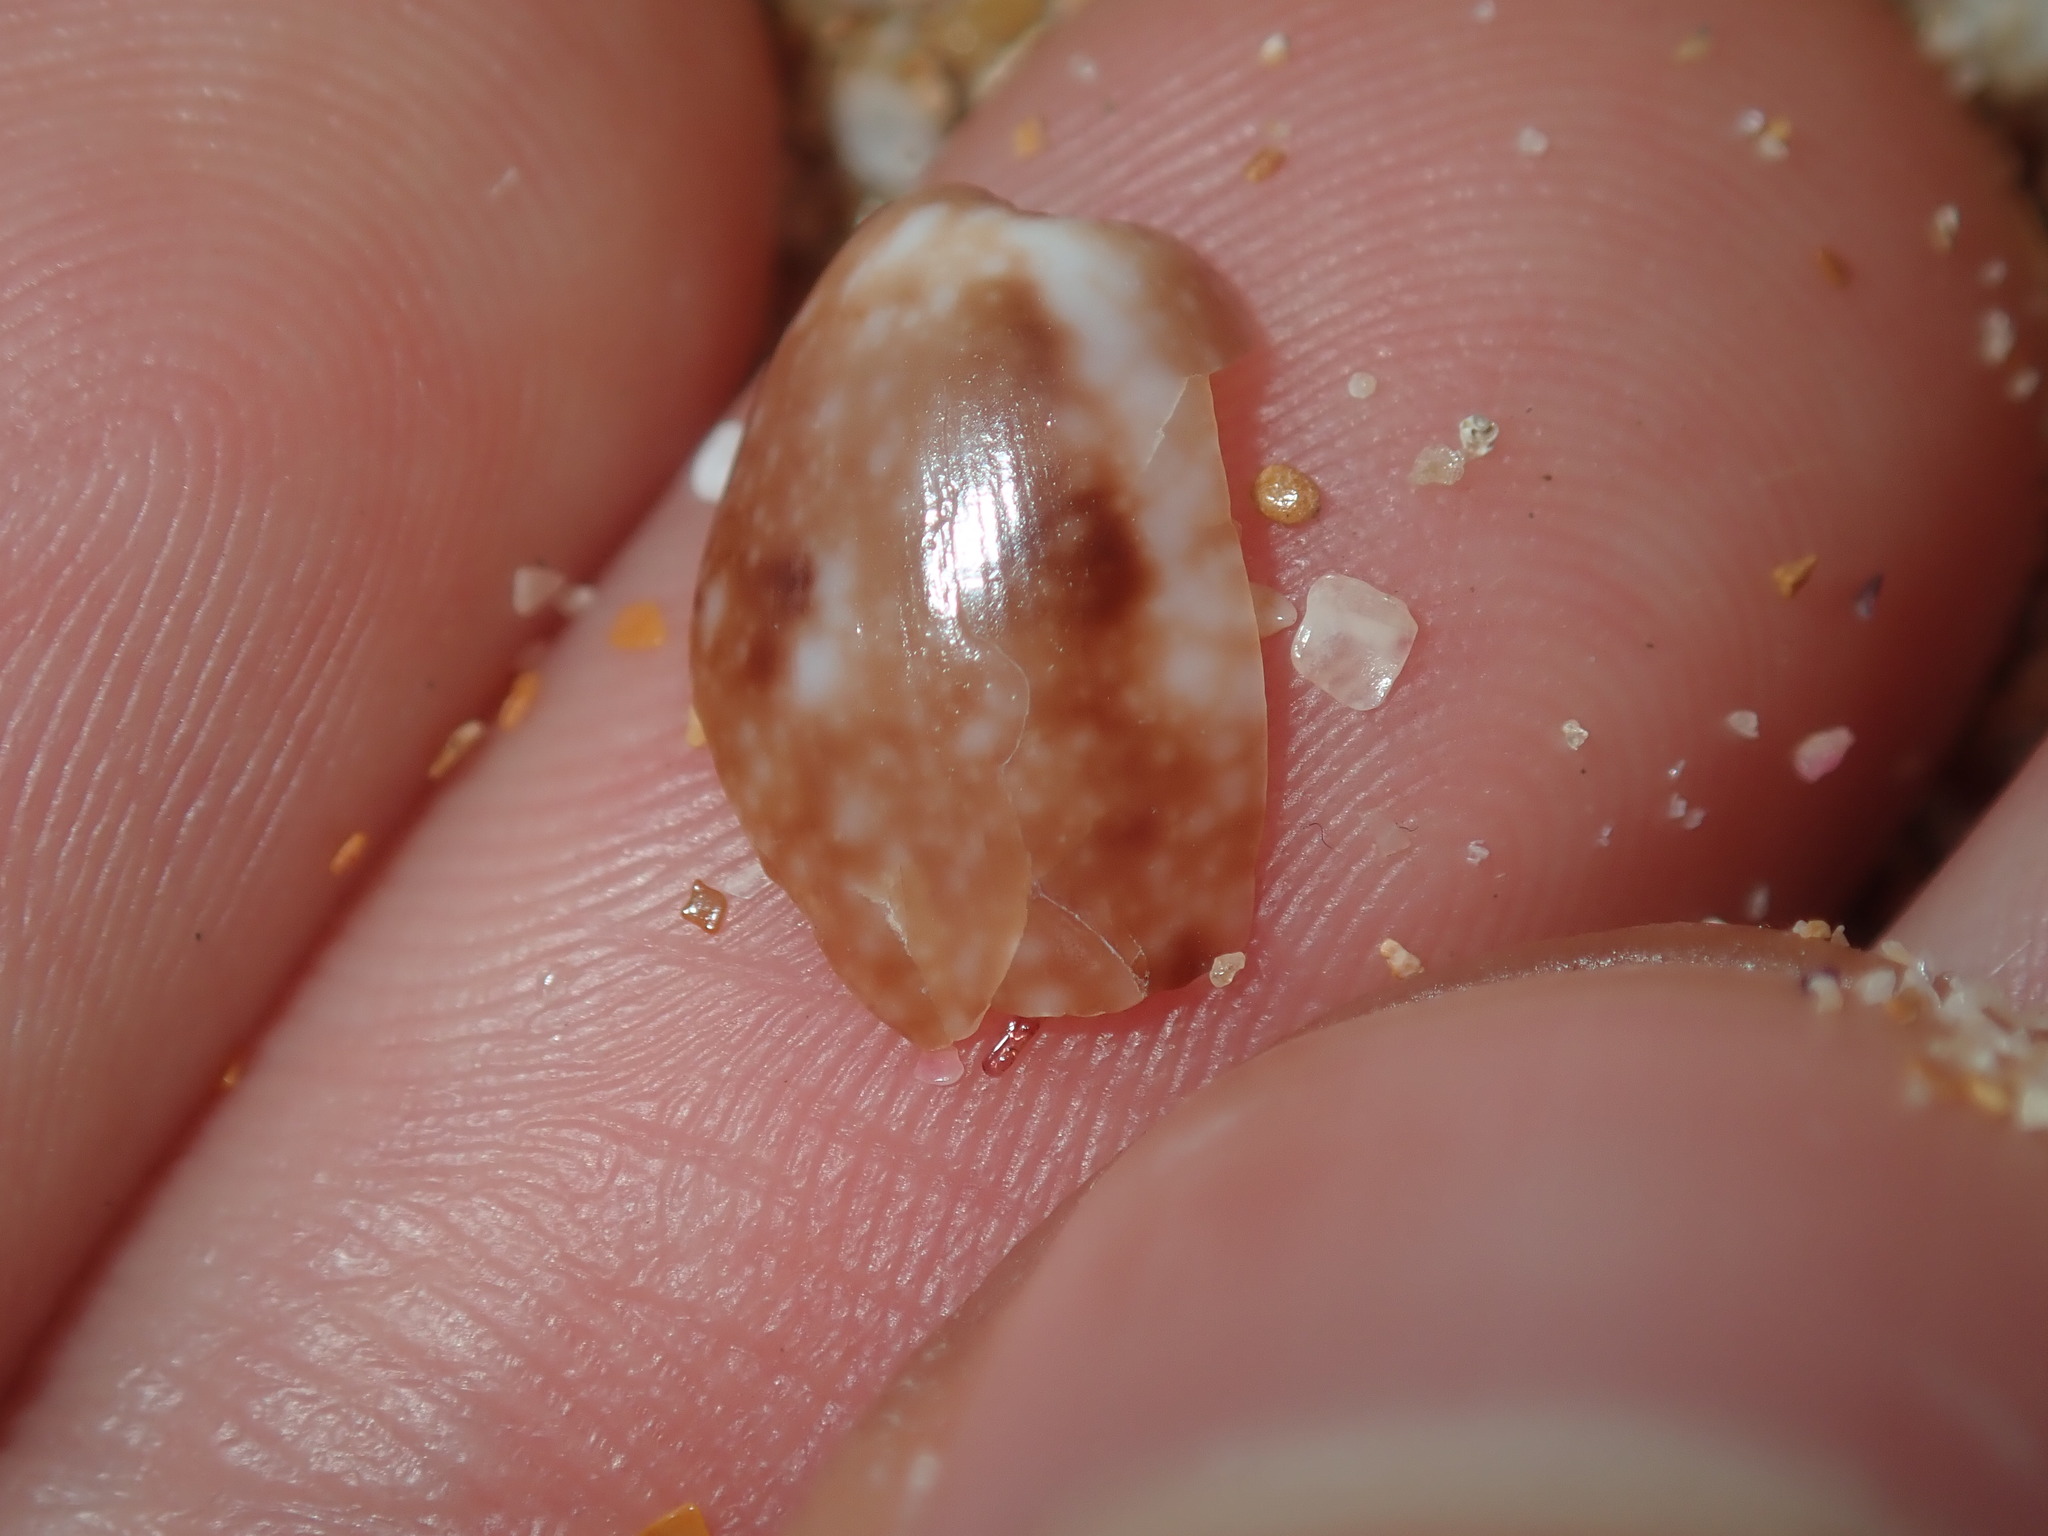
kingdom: Animalia
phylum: Mollusca
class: Gastropoda
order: Cephalaspidea
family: Bullidae
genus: Bulla
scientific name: Bulla mabillei
